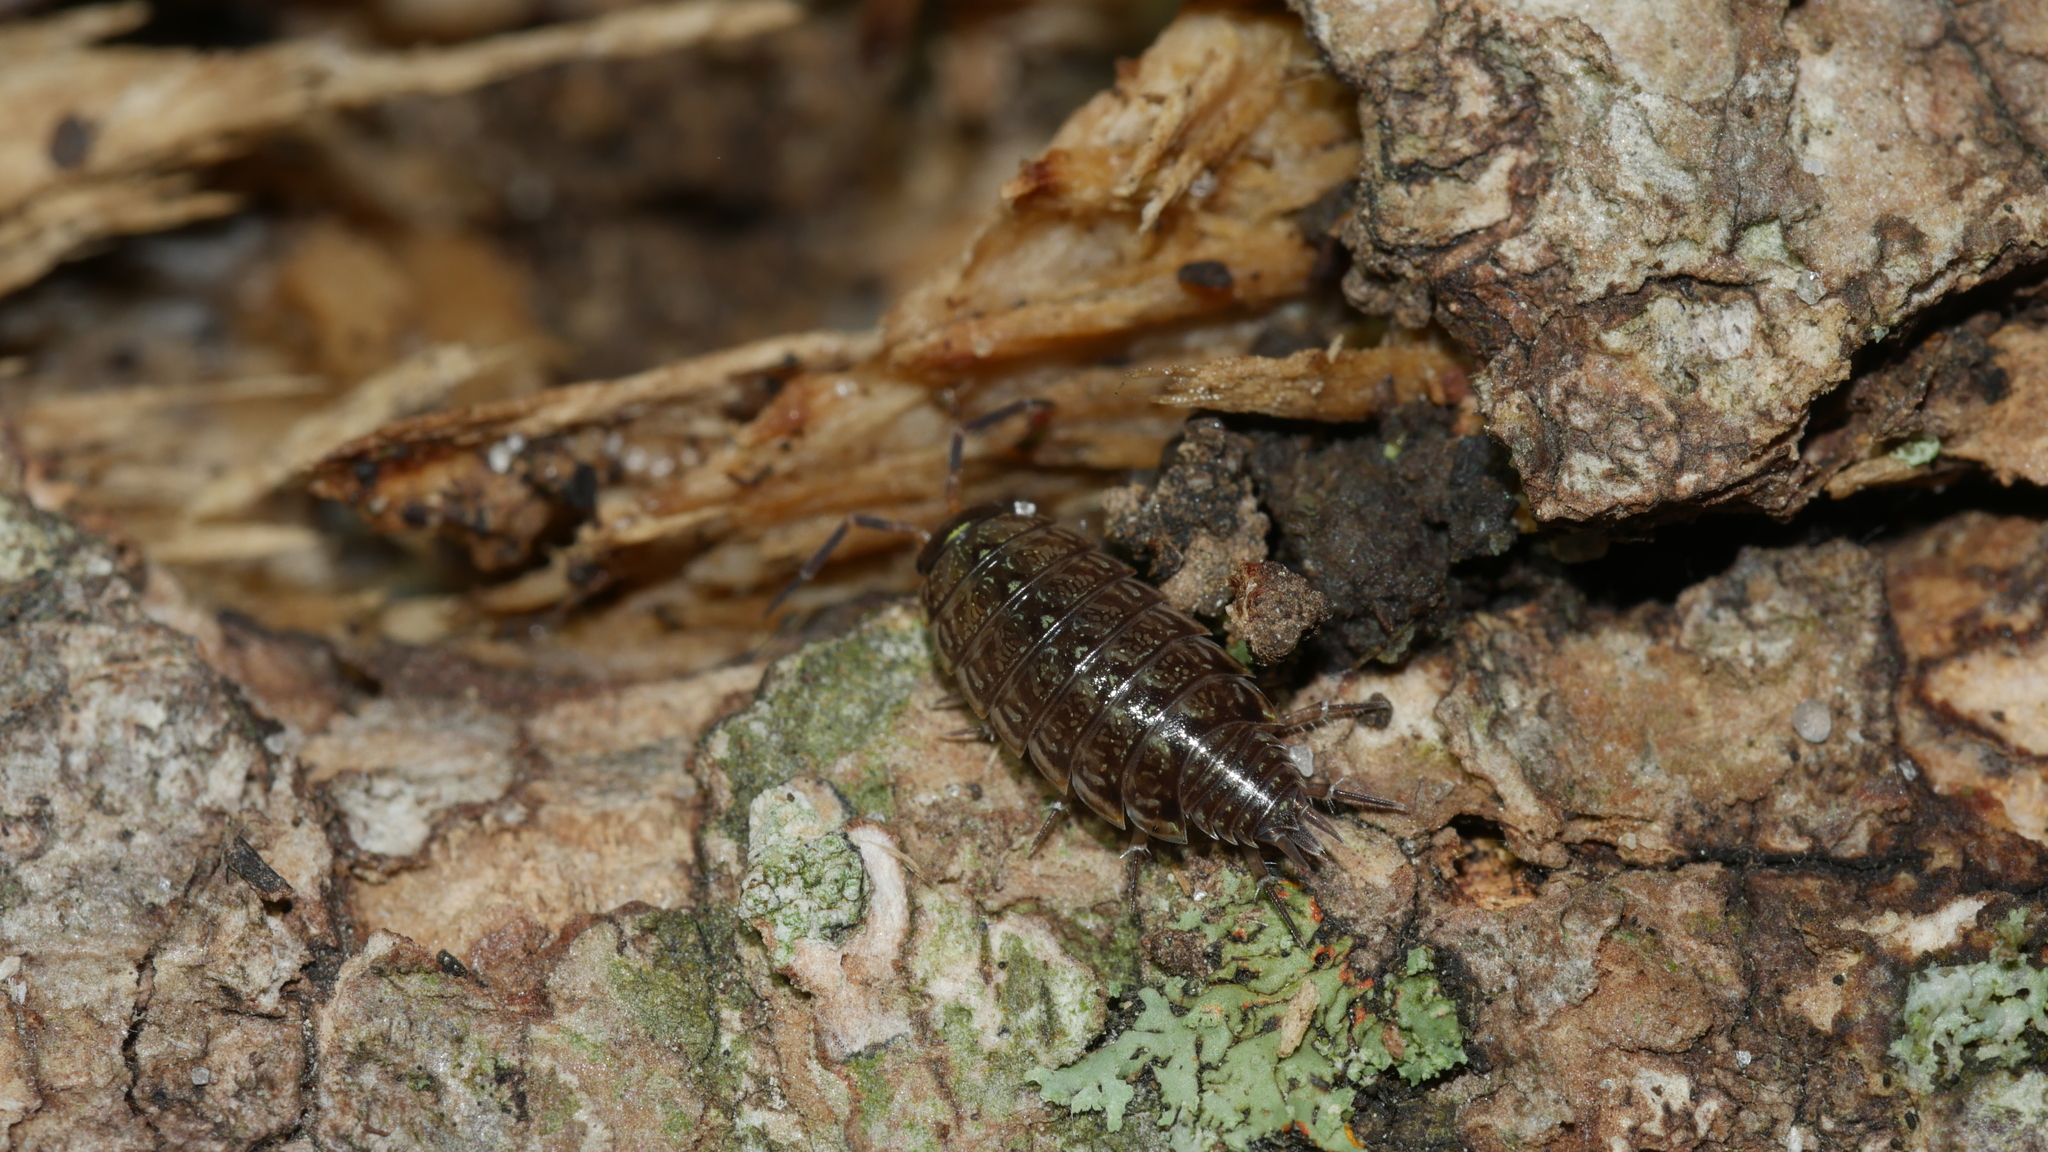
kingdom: Animalia
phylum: Arthropoda
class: Malacostraca
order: Isopoda
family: Philosciidae
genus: Philoscia
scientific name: Philoscia muscorum
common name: Common striped woodlouse
